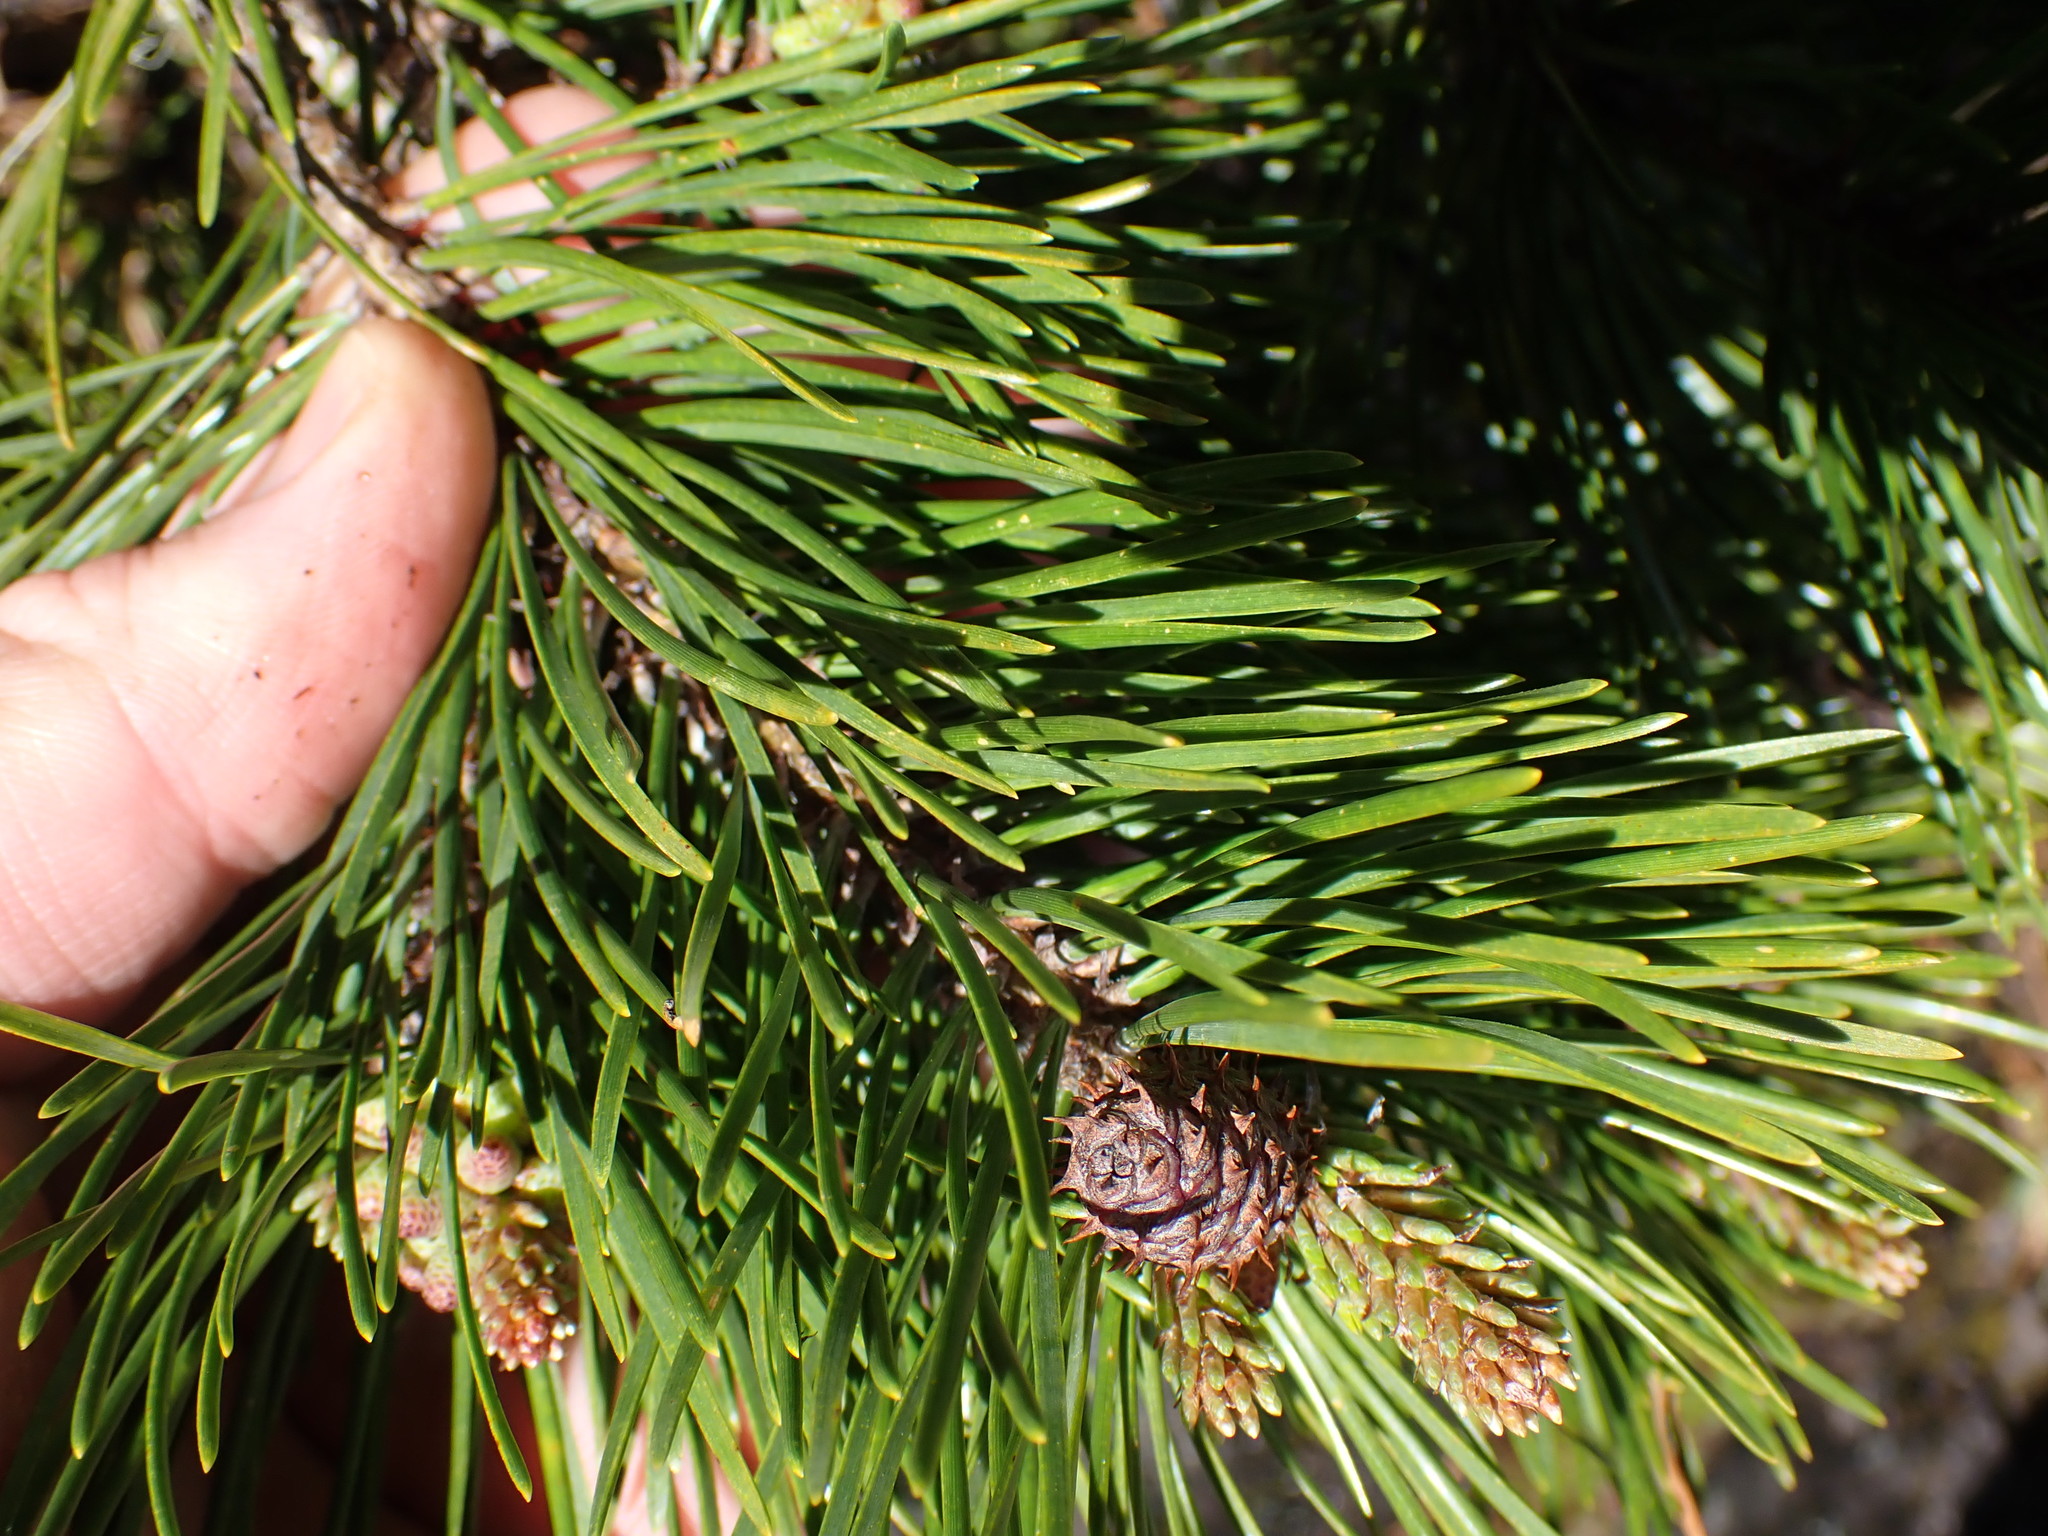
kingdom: Plantae
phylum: Tracheophyta
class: Pinopsida
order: Pinales
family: Pinaceae
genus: Pinus
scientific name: Pinus contorta
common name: Lodgepole pine
